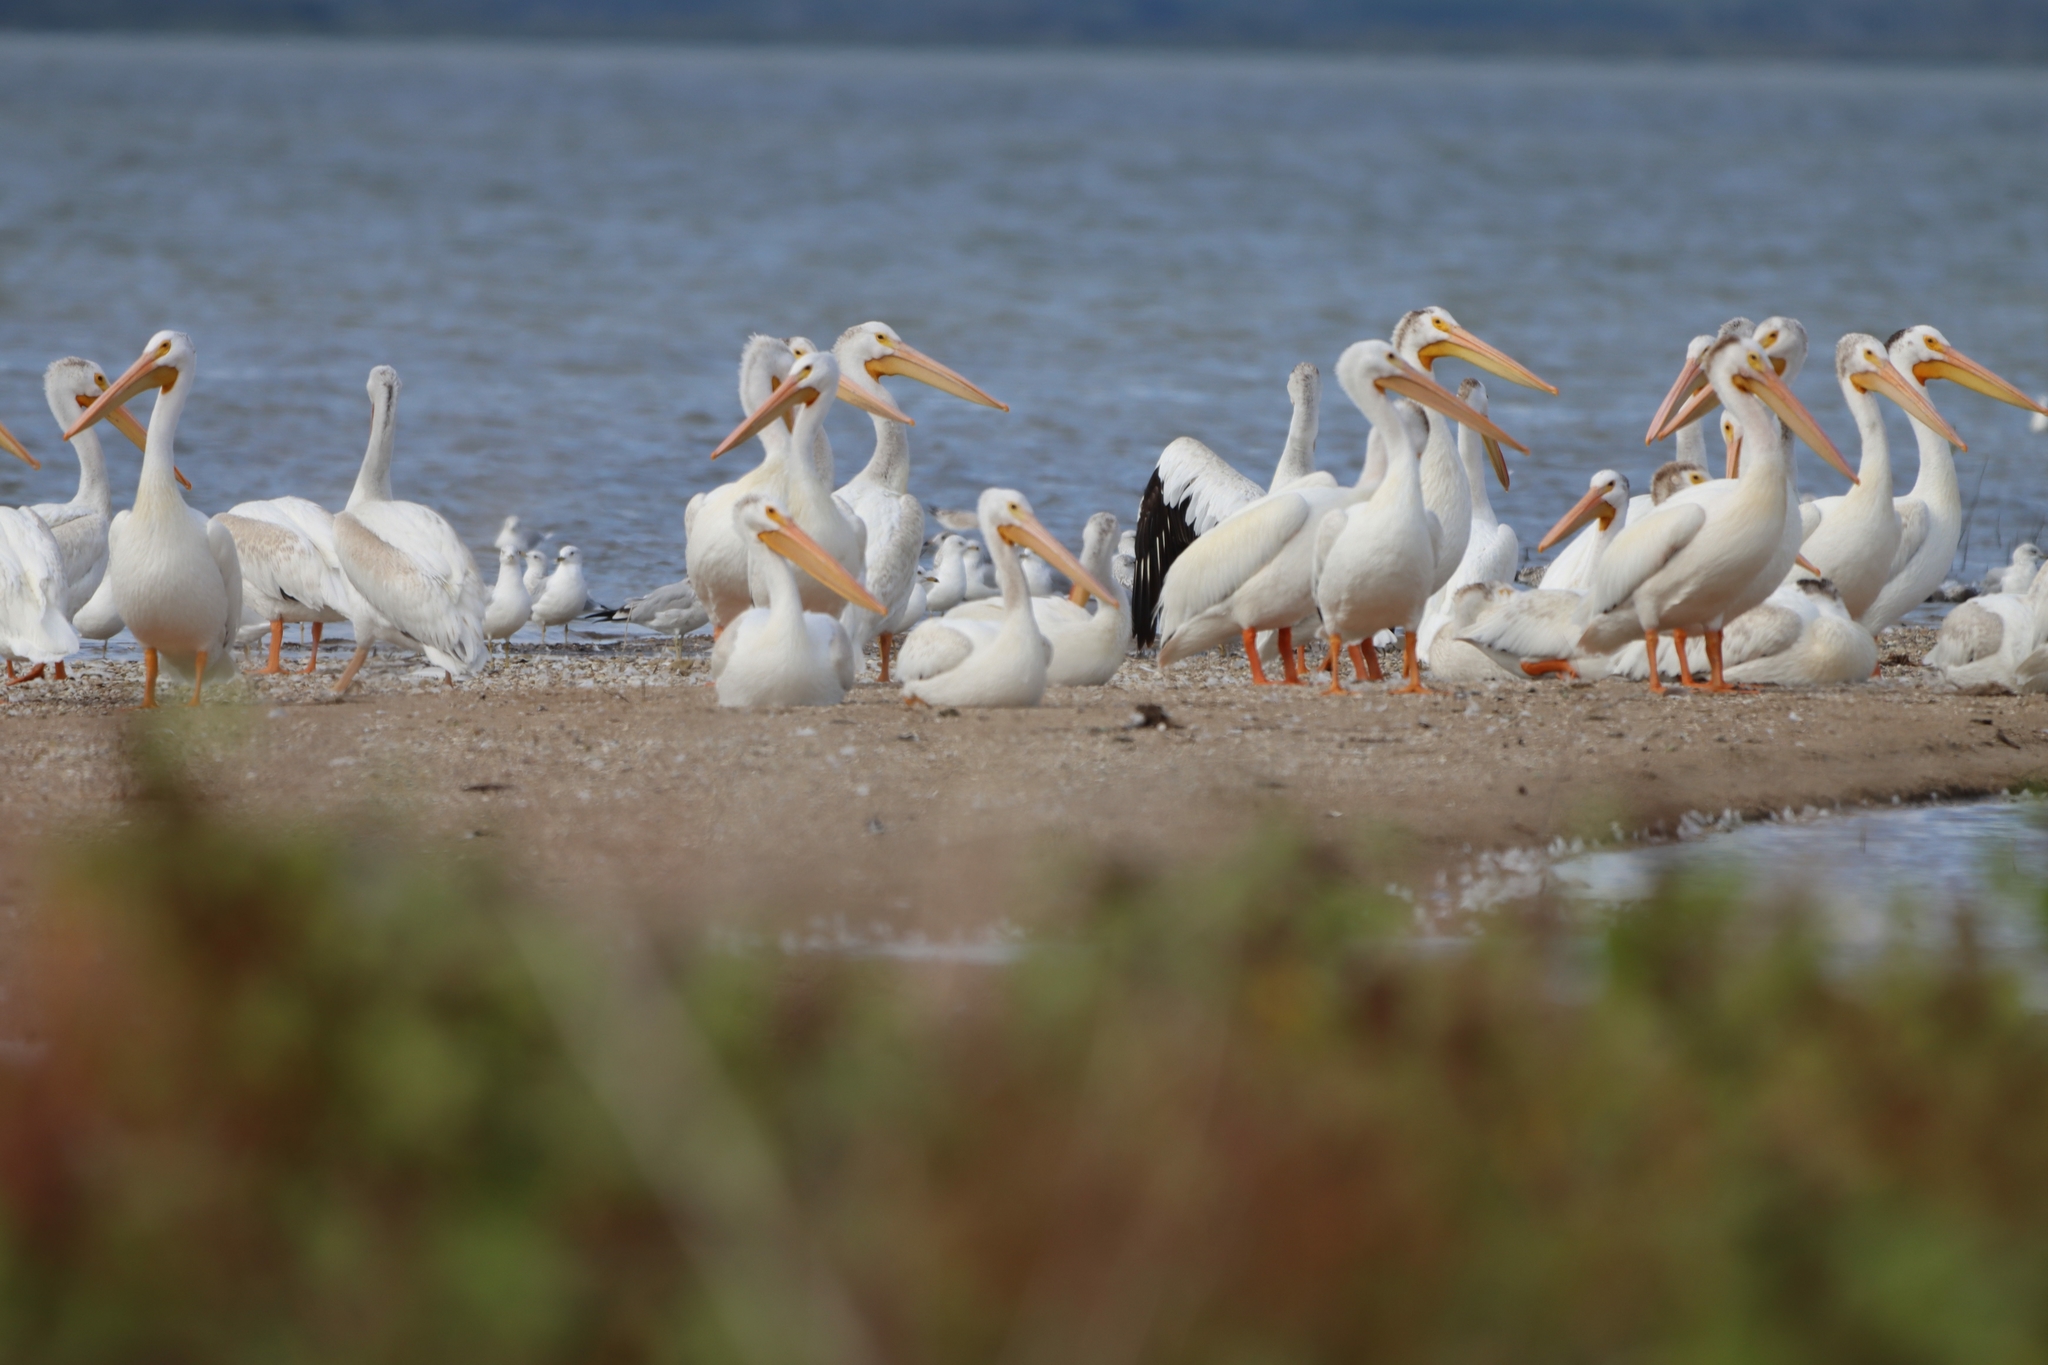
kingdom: Animalia
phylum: Chordata
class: Aves
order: Pelecaniformes
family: Pelecanidae
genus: Pelecanus
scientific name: Pelecanus erythrorhynchos
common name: American white pelican
